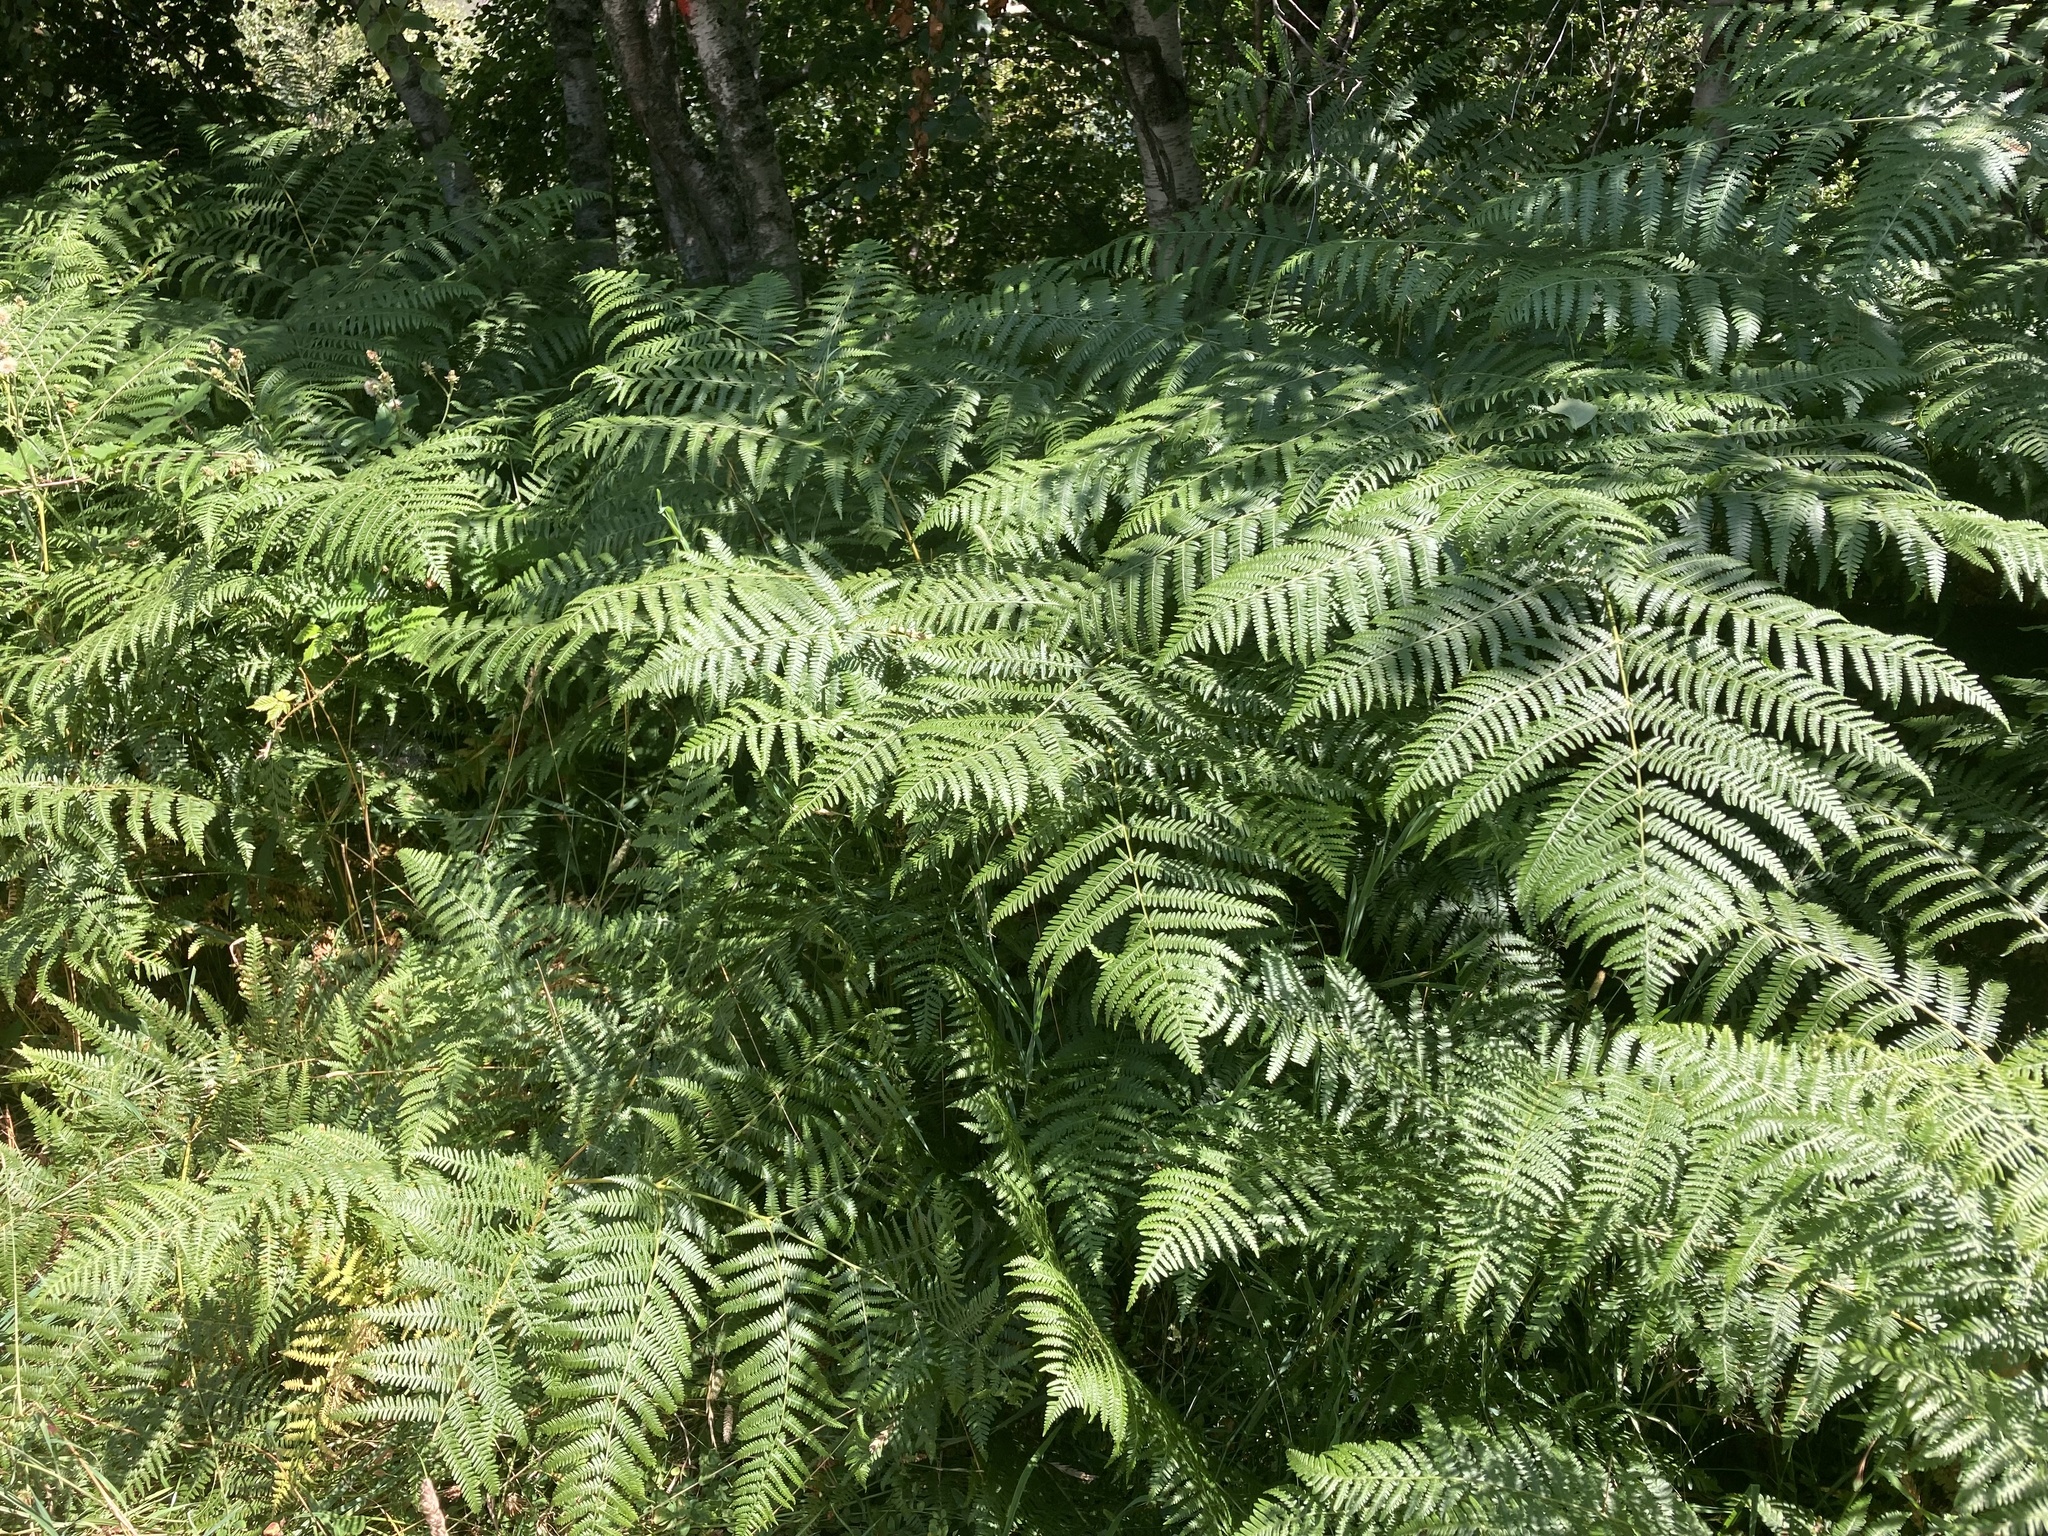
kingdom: Plantae
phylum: Tracheophyta
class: Polypodiopsida
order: Polypodiales
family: Dennstaedtiaceae
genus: Pteridium
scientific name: Pteridium aquilinum
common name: Bracken
